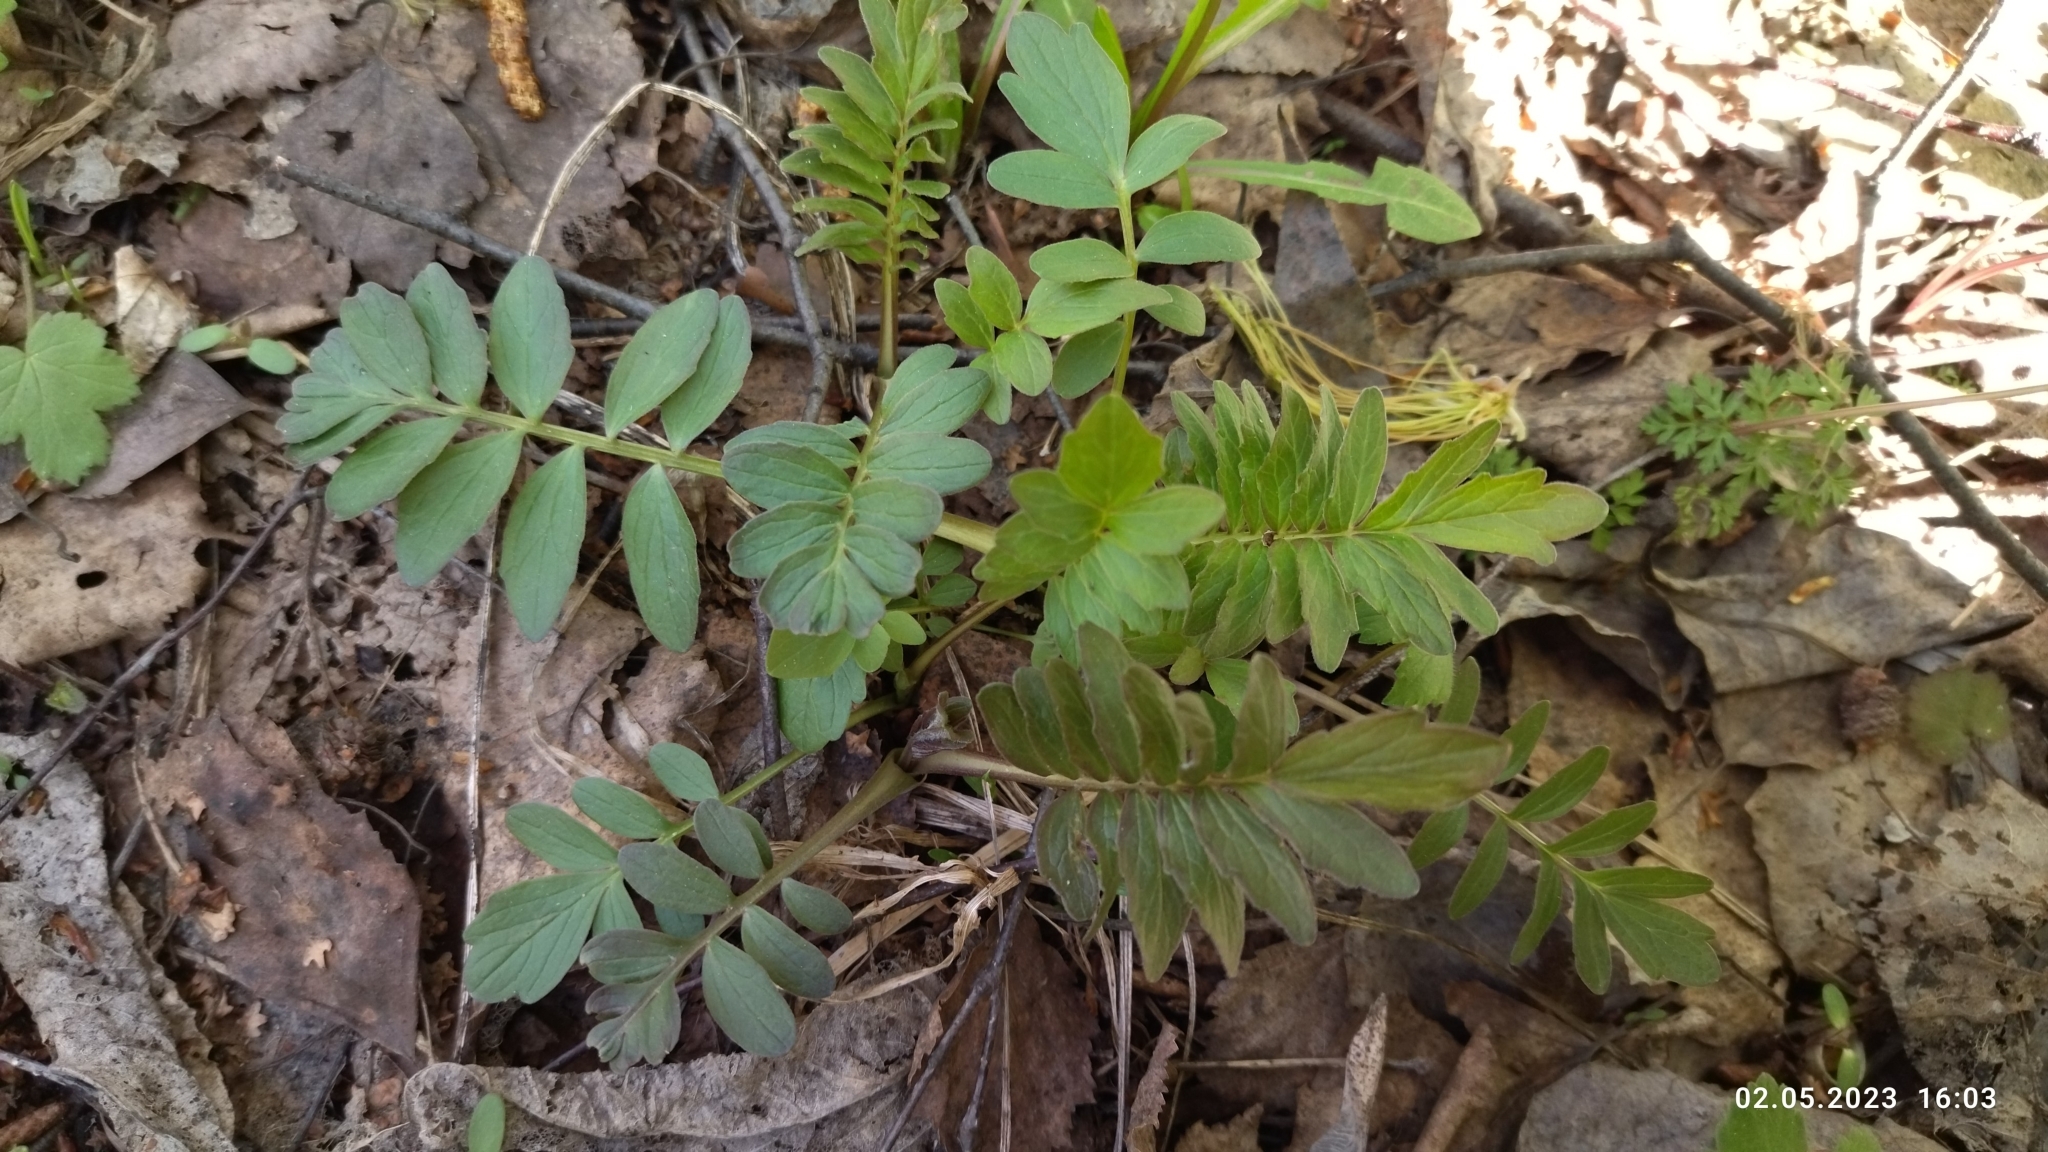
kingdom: Plantae
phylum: Tracheophyta
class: Magnoliopsida
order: Dipsacales
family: Caprifoliaceae
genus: Valeriana
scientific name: Valeriana officinalis
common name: Common valerian
